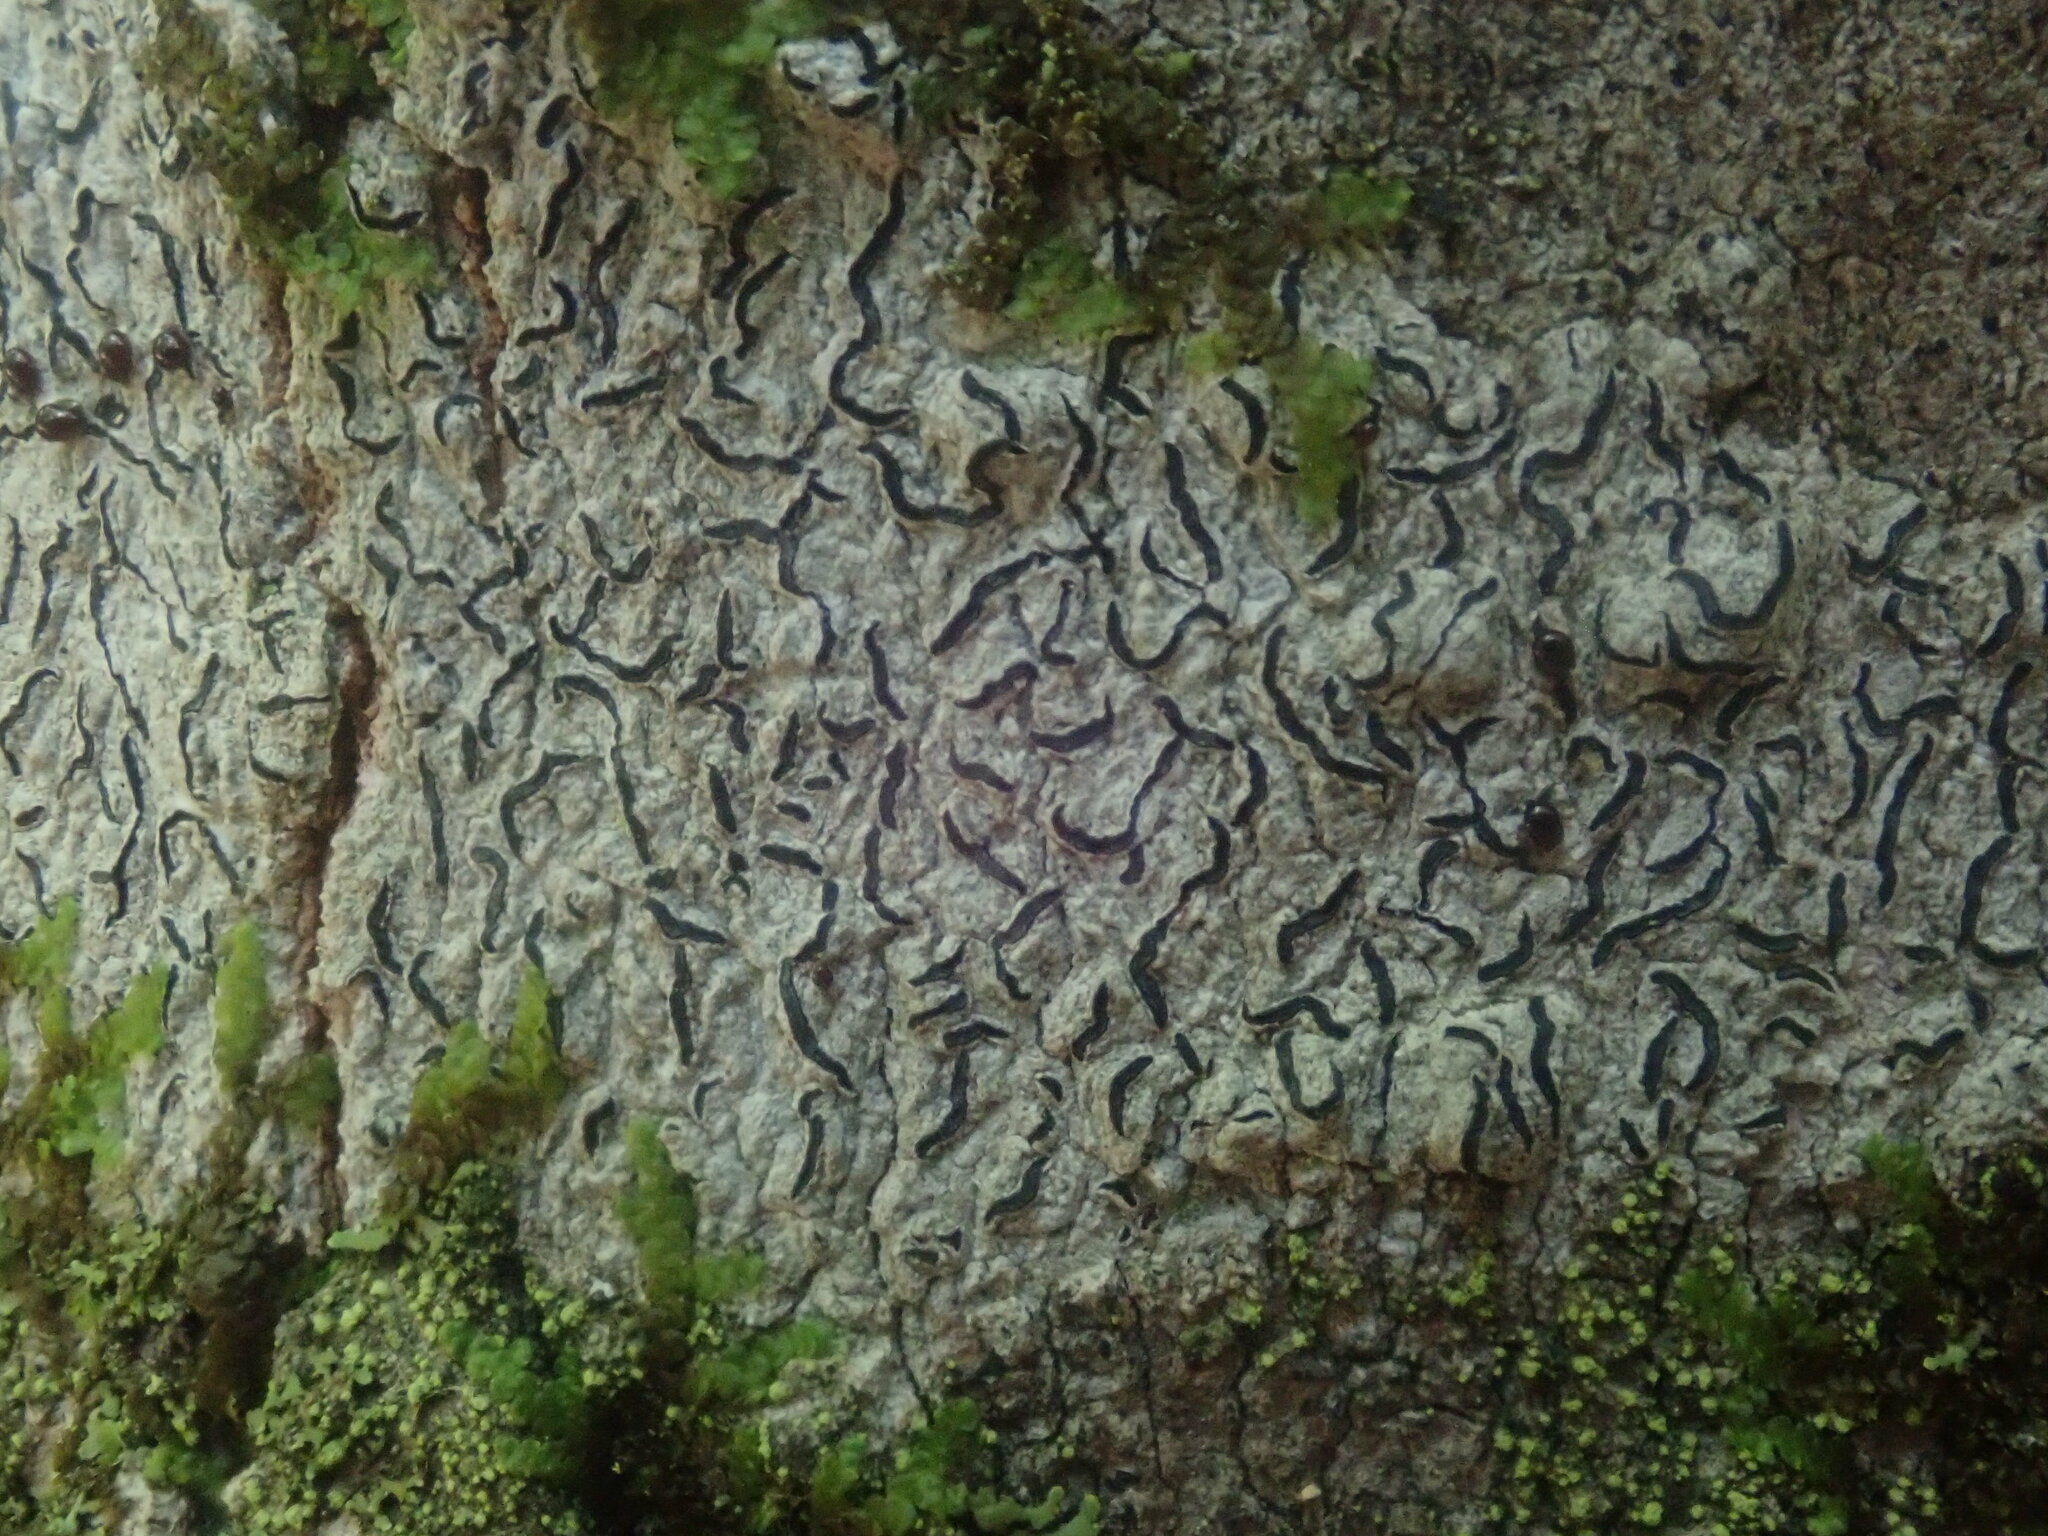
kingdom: Fungi
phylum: Ascomycota
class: Lecanoromycetes
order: Ostropales
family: Graphidaceae
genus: Graphis
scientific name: Graphis scripta
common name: Script lichen
